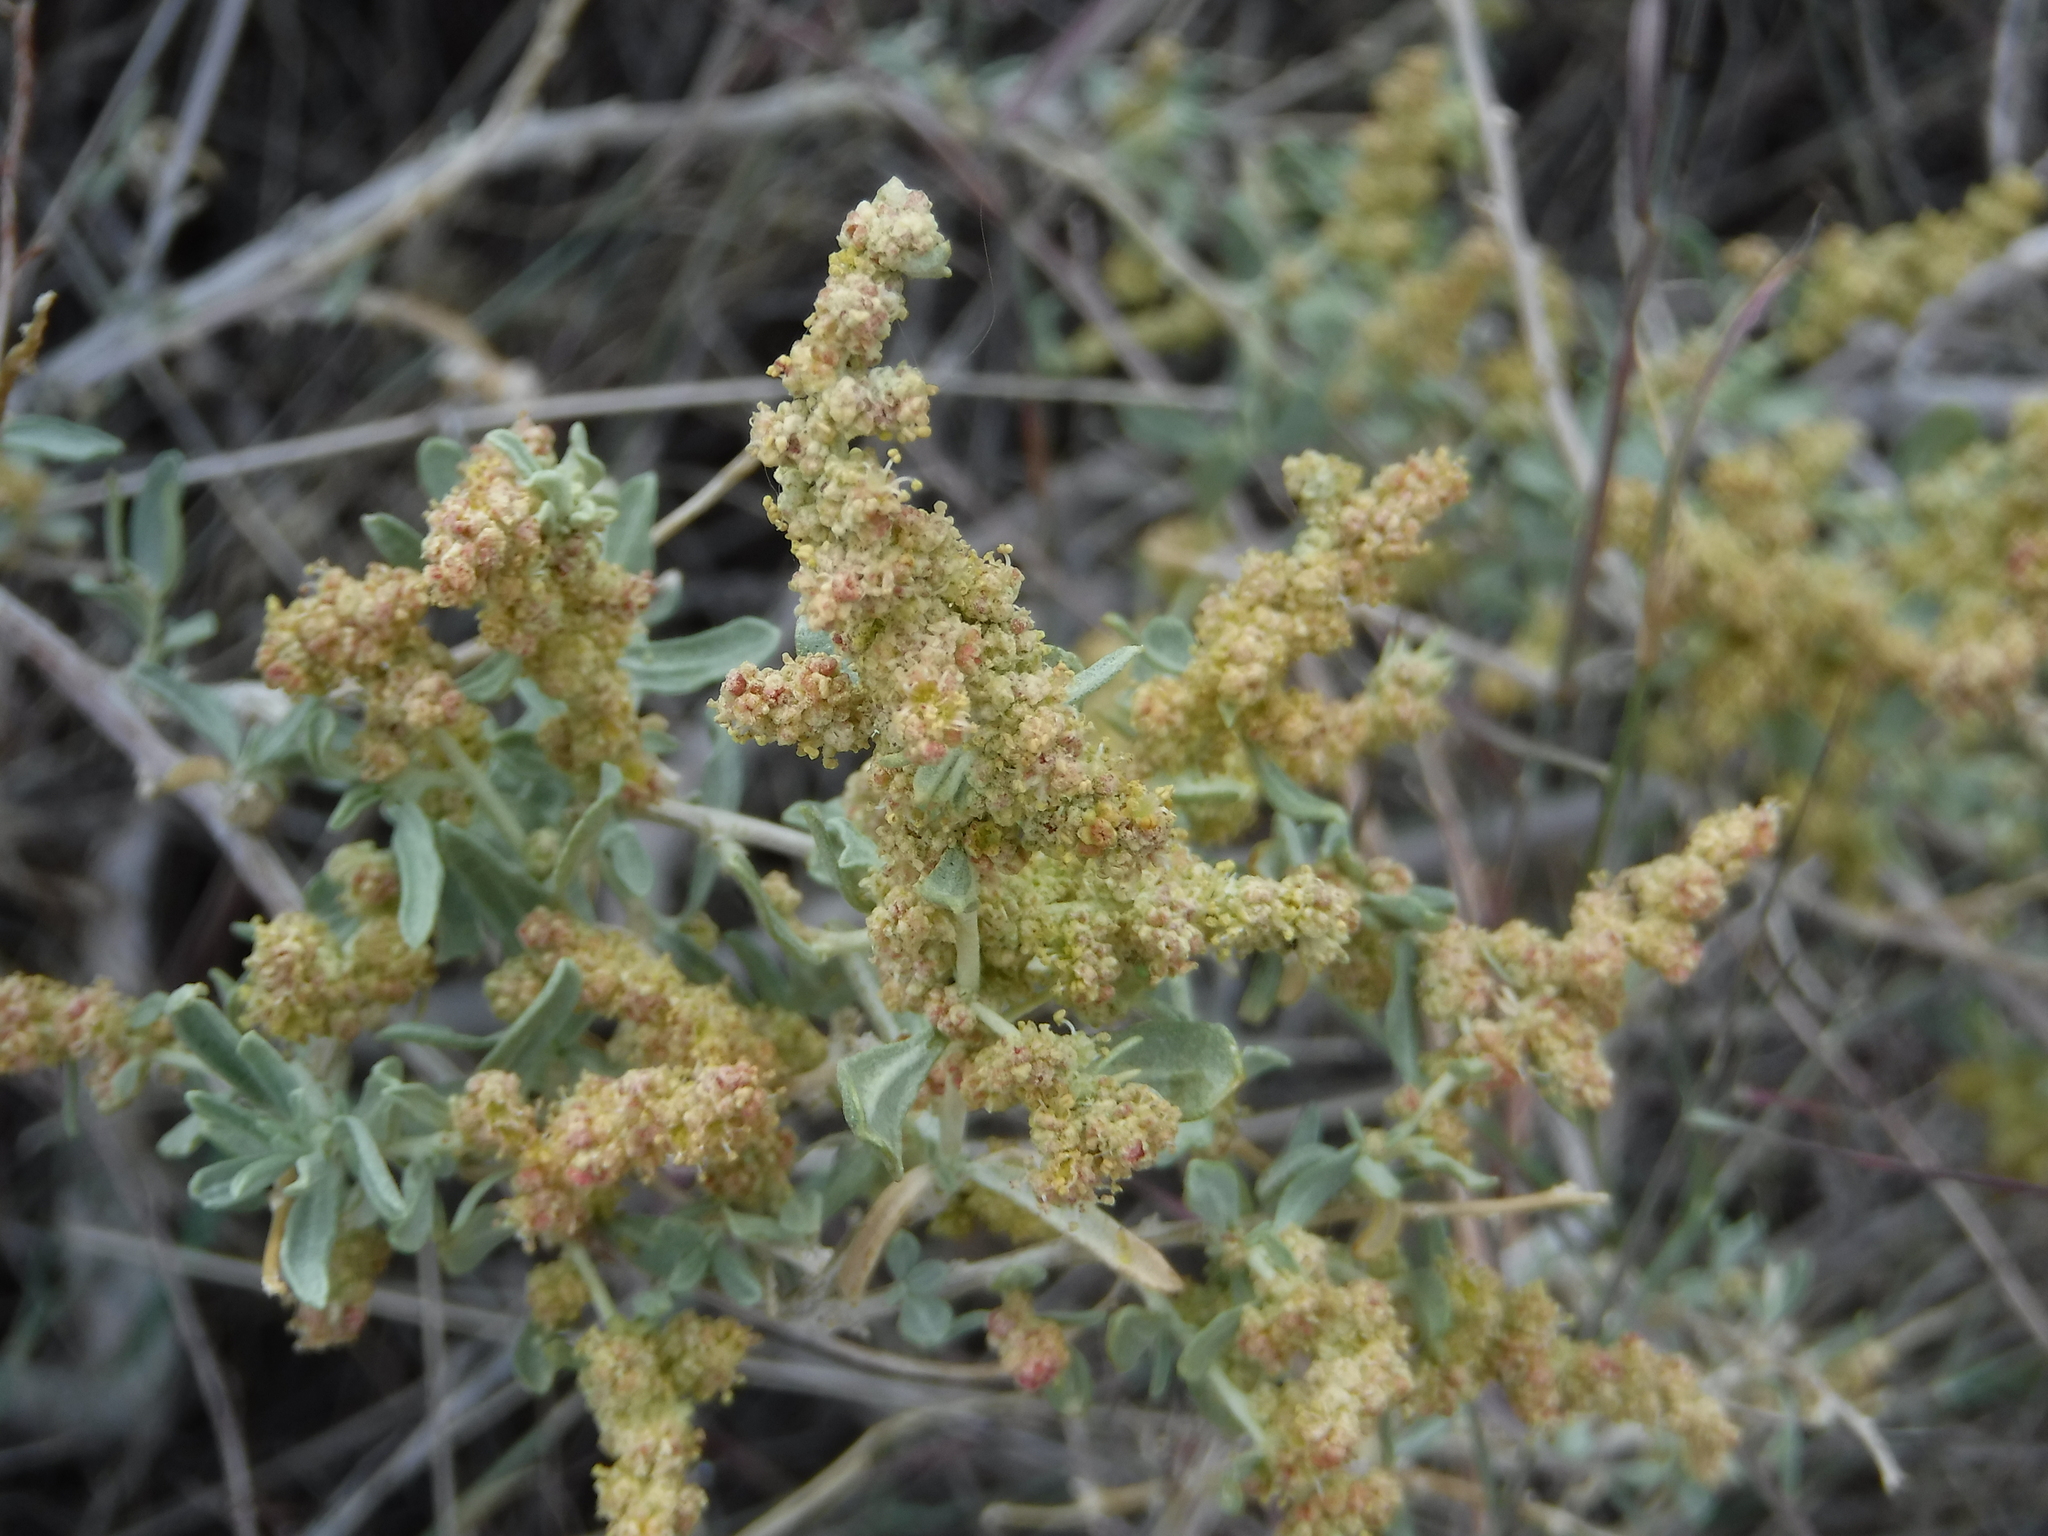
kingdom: Plantae
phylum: Tracheophyta
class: Magnoliopsida
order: Caryophyllales
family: Amaranthaceae
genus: Atriplex
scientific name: Atriplex canescens
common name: Four-wing saltbush
